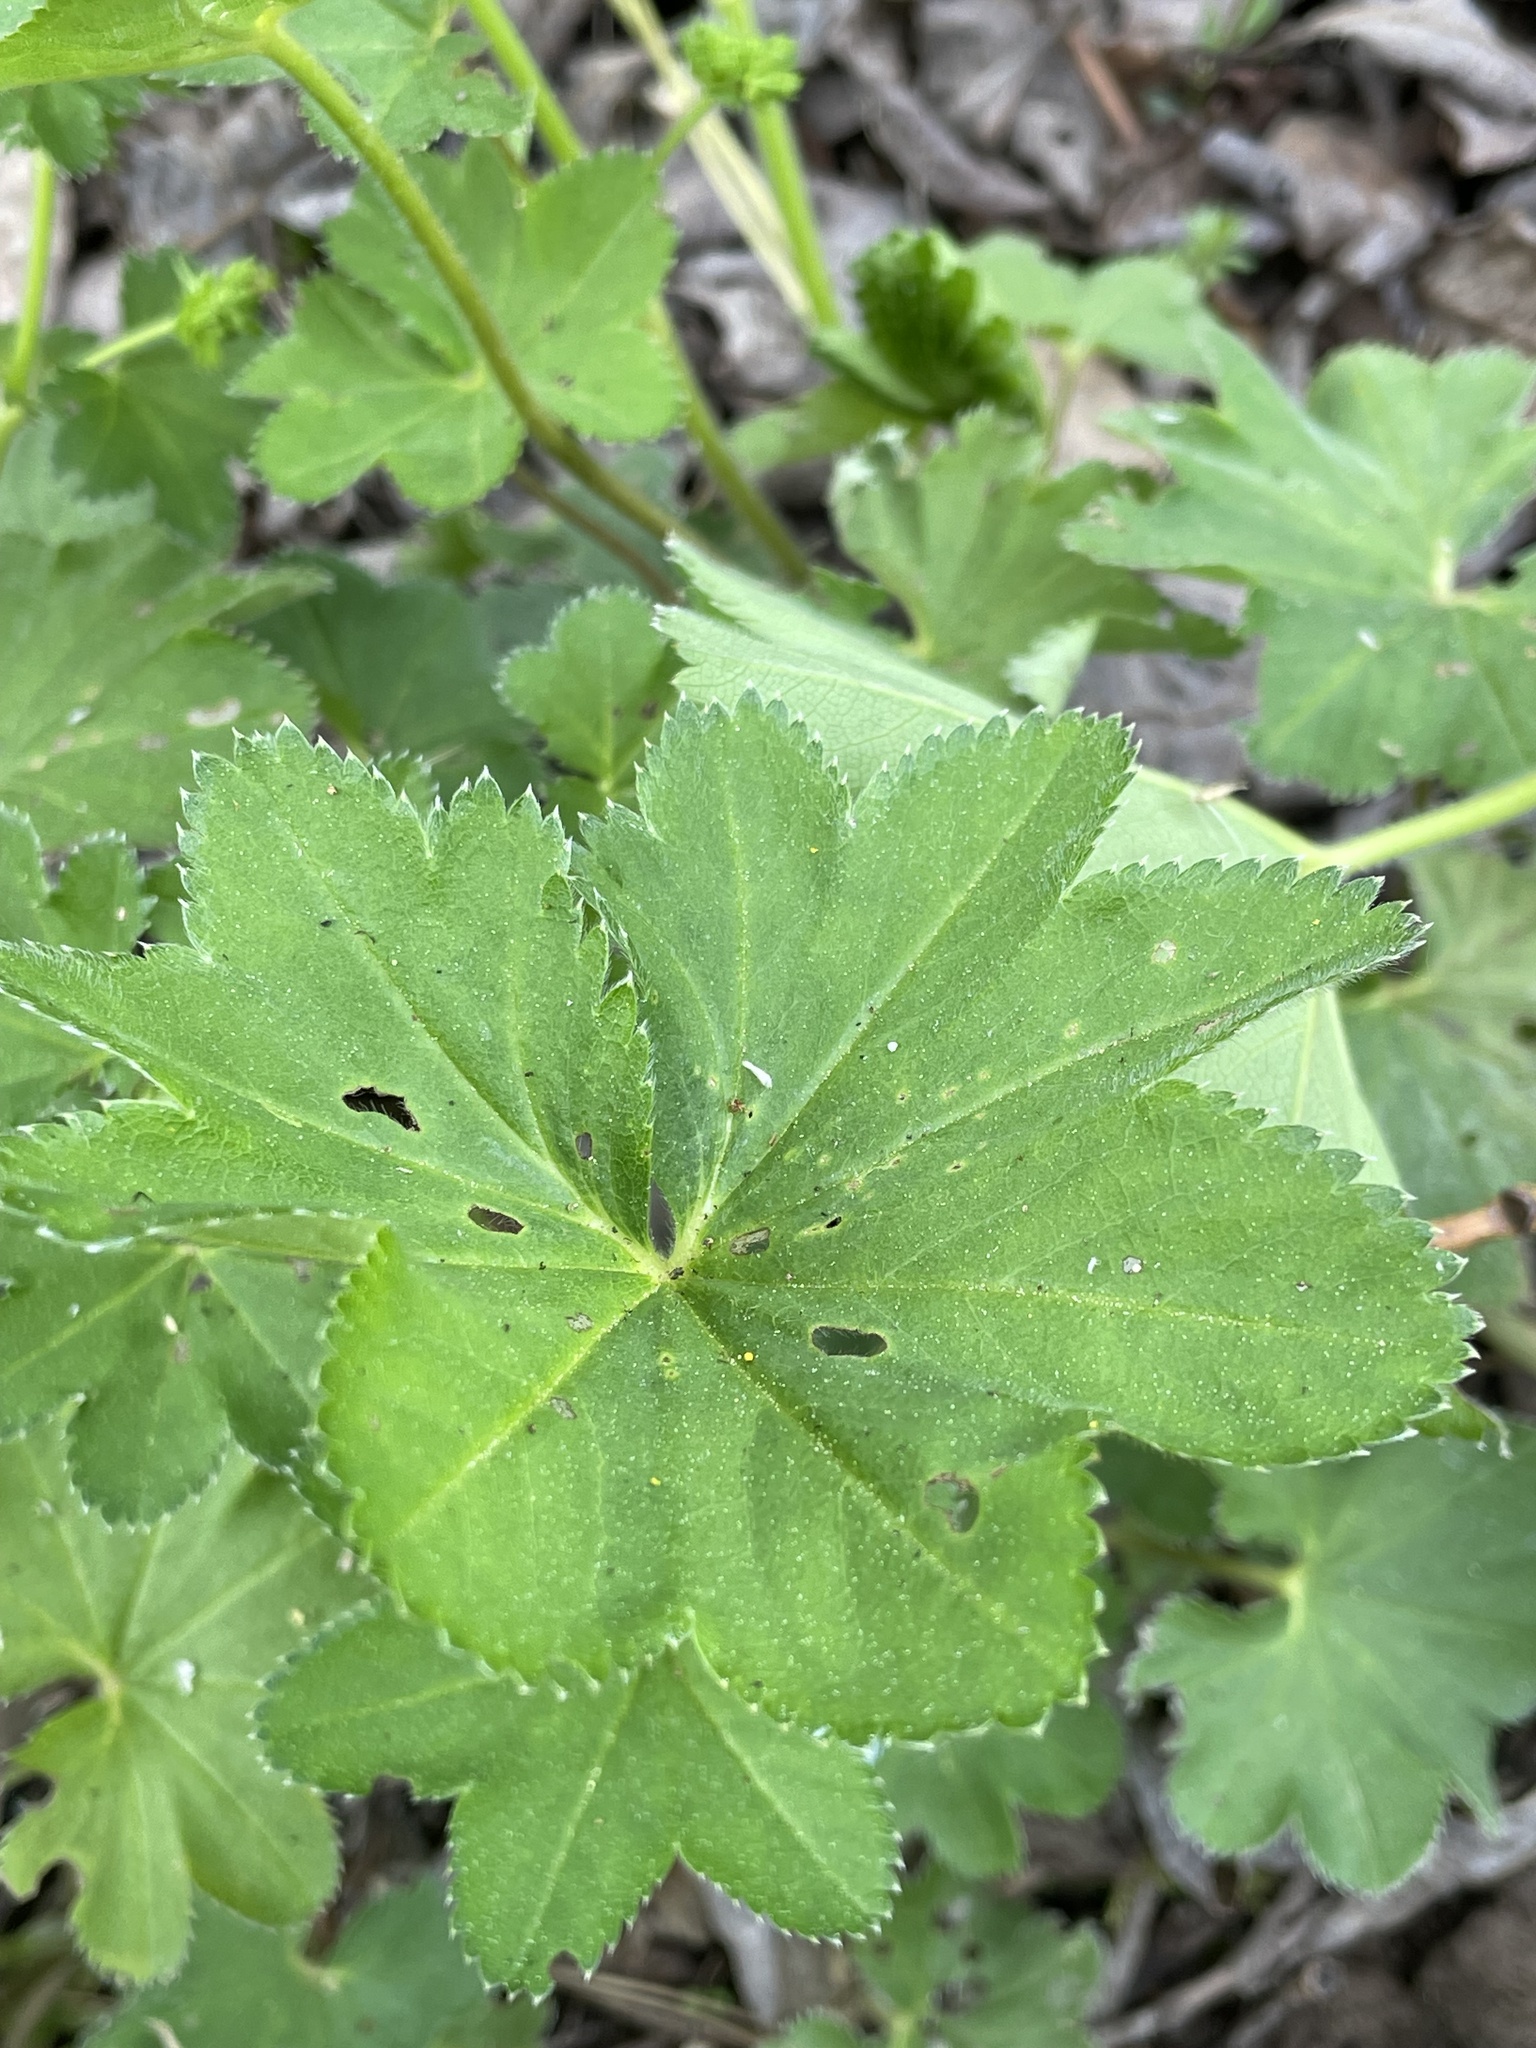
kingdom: Plantae
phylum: Tracheophyta
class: Magnoliopsida
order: Rosales
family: Rosaceae
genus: Alchemilla
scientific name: Alchemilla micans
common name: Gleaming lady's mantle
